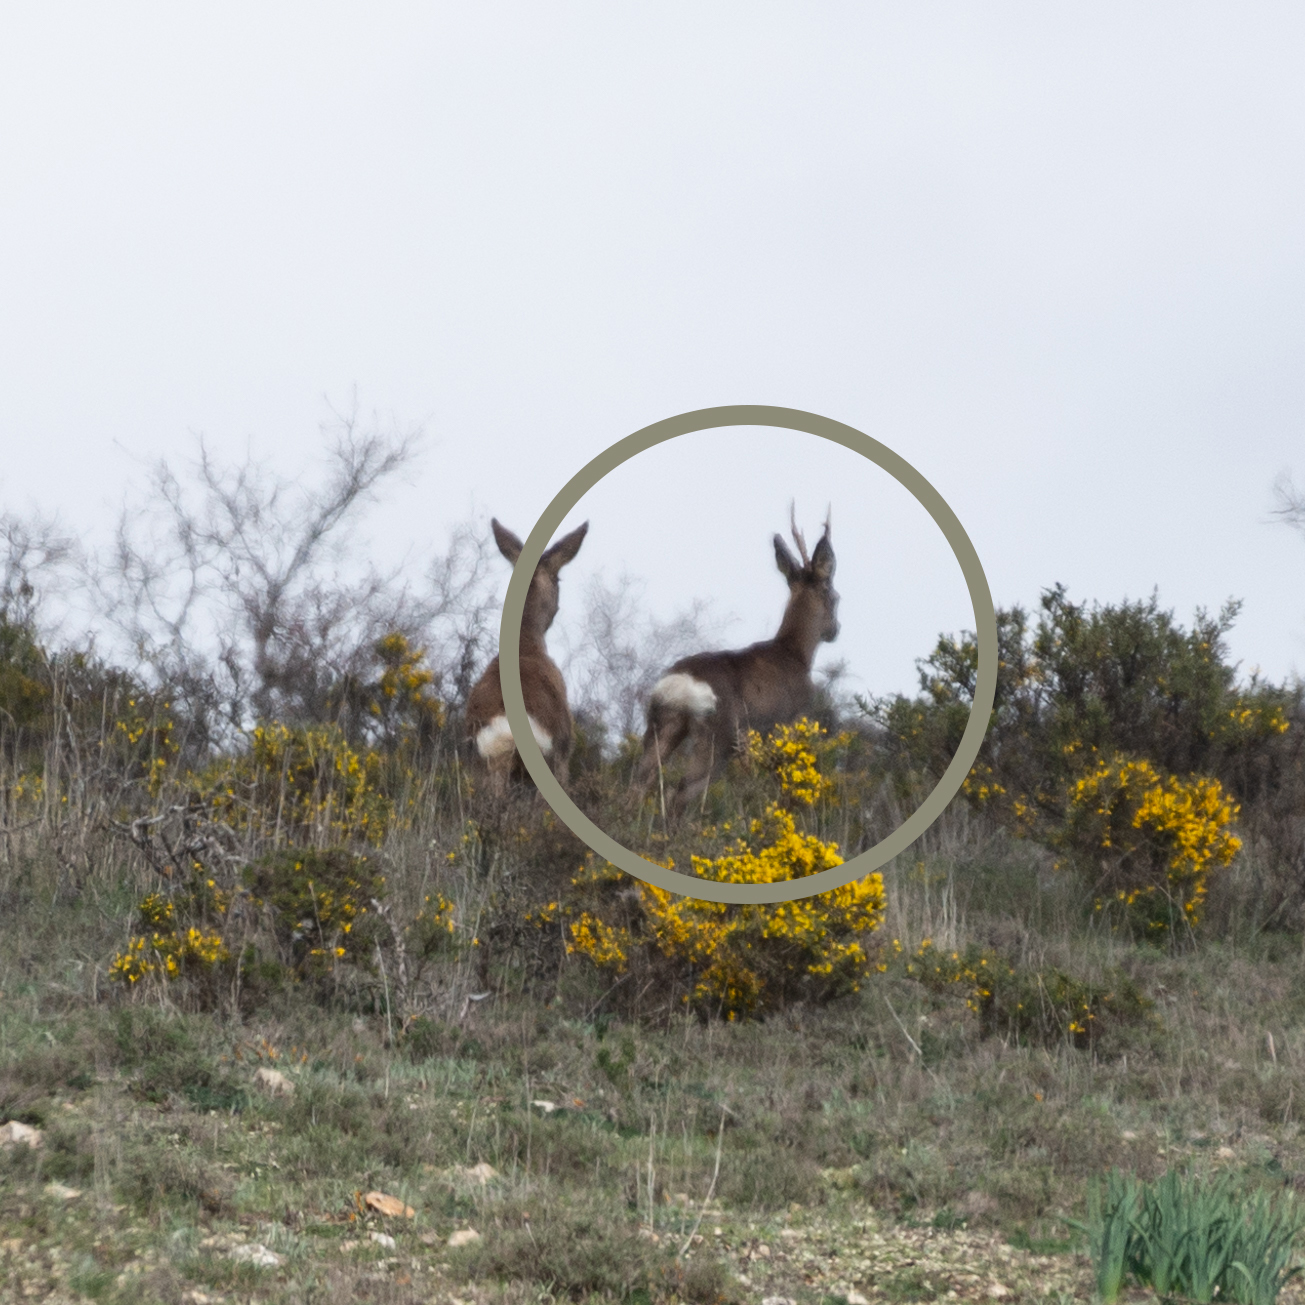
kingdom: Animalia
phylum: Chordata
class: Mammalia
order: Artiodactyla
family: Cervidae
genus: Capreolus
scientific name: Capreolus capreolus
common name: Western roe deer
